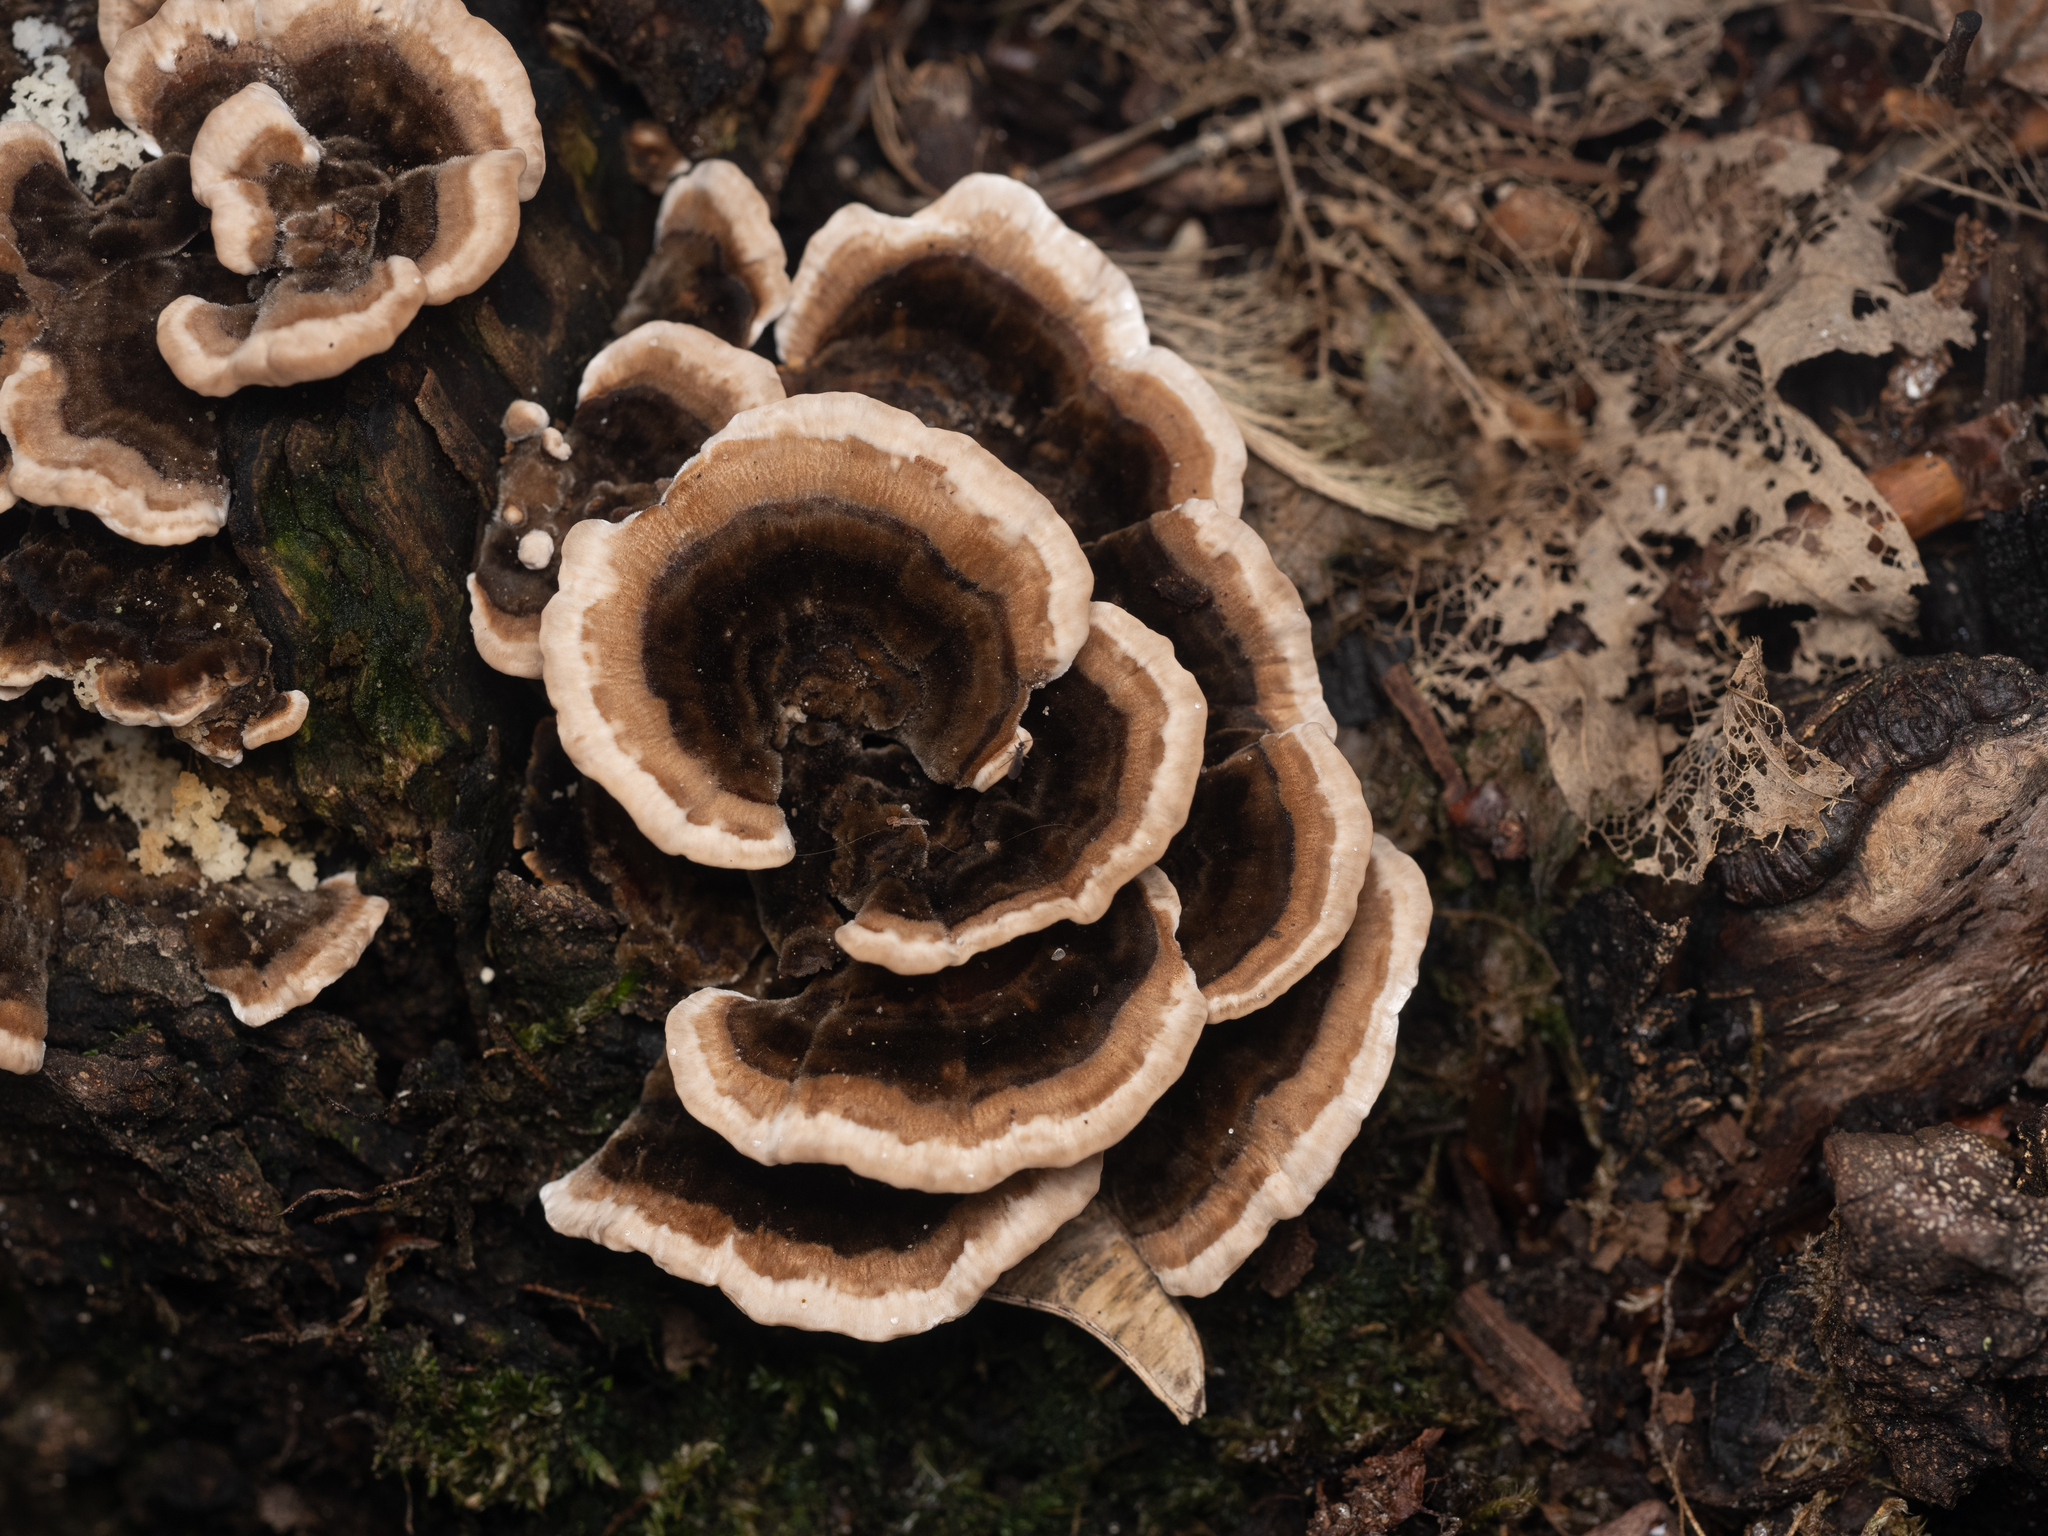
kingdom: Fungi
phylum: Basidiomycota
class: Agaricomycetes
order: Polyporales
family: Polyporaceae
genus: Trametes
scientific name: Trametes versicolor
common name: Turkeytail
